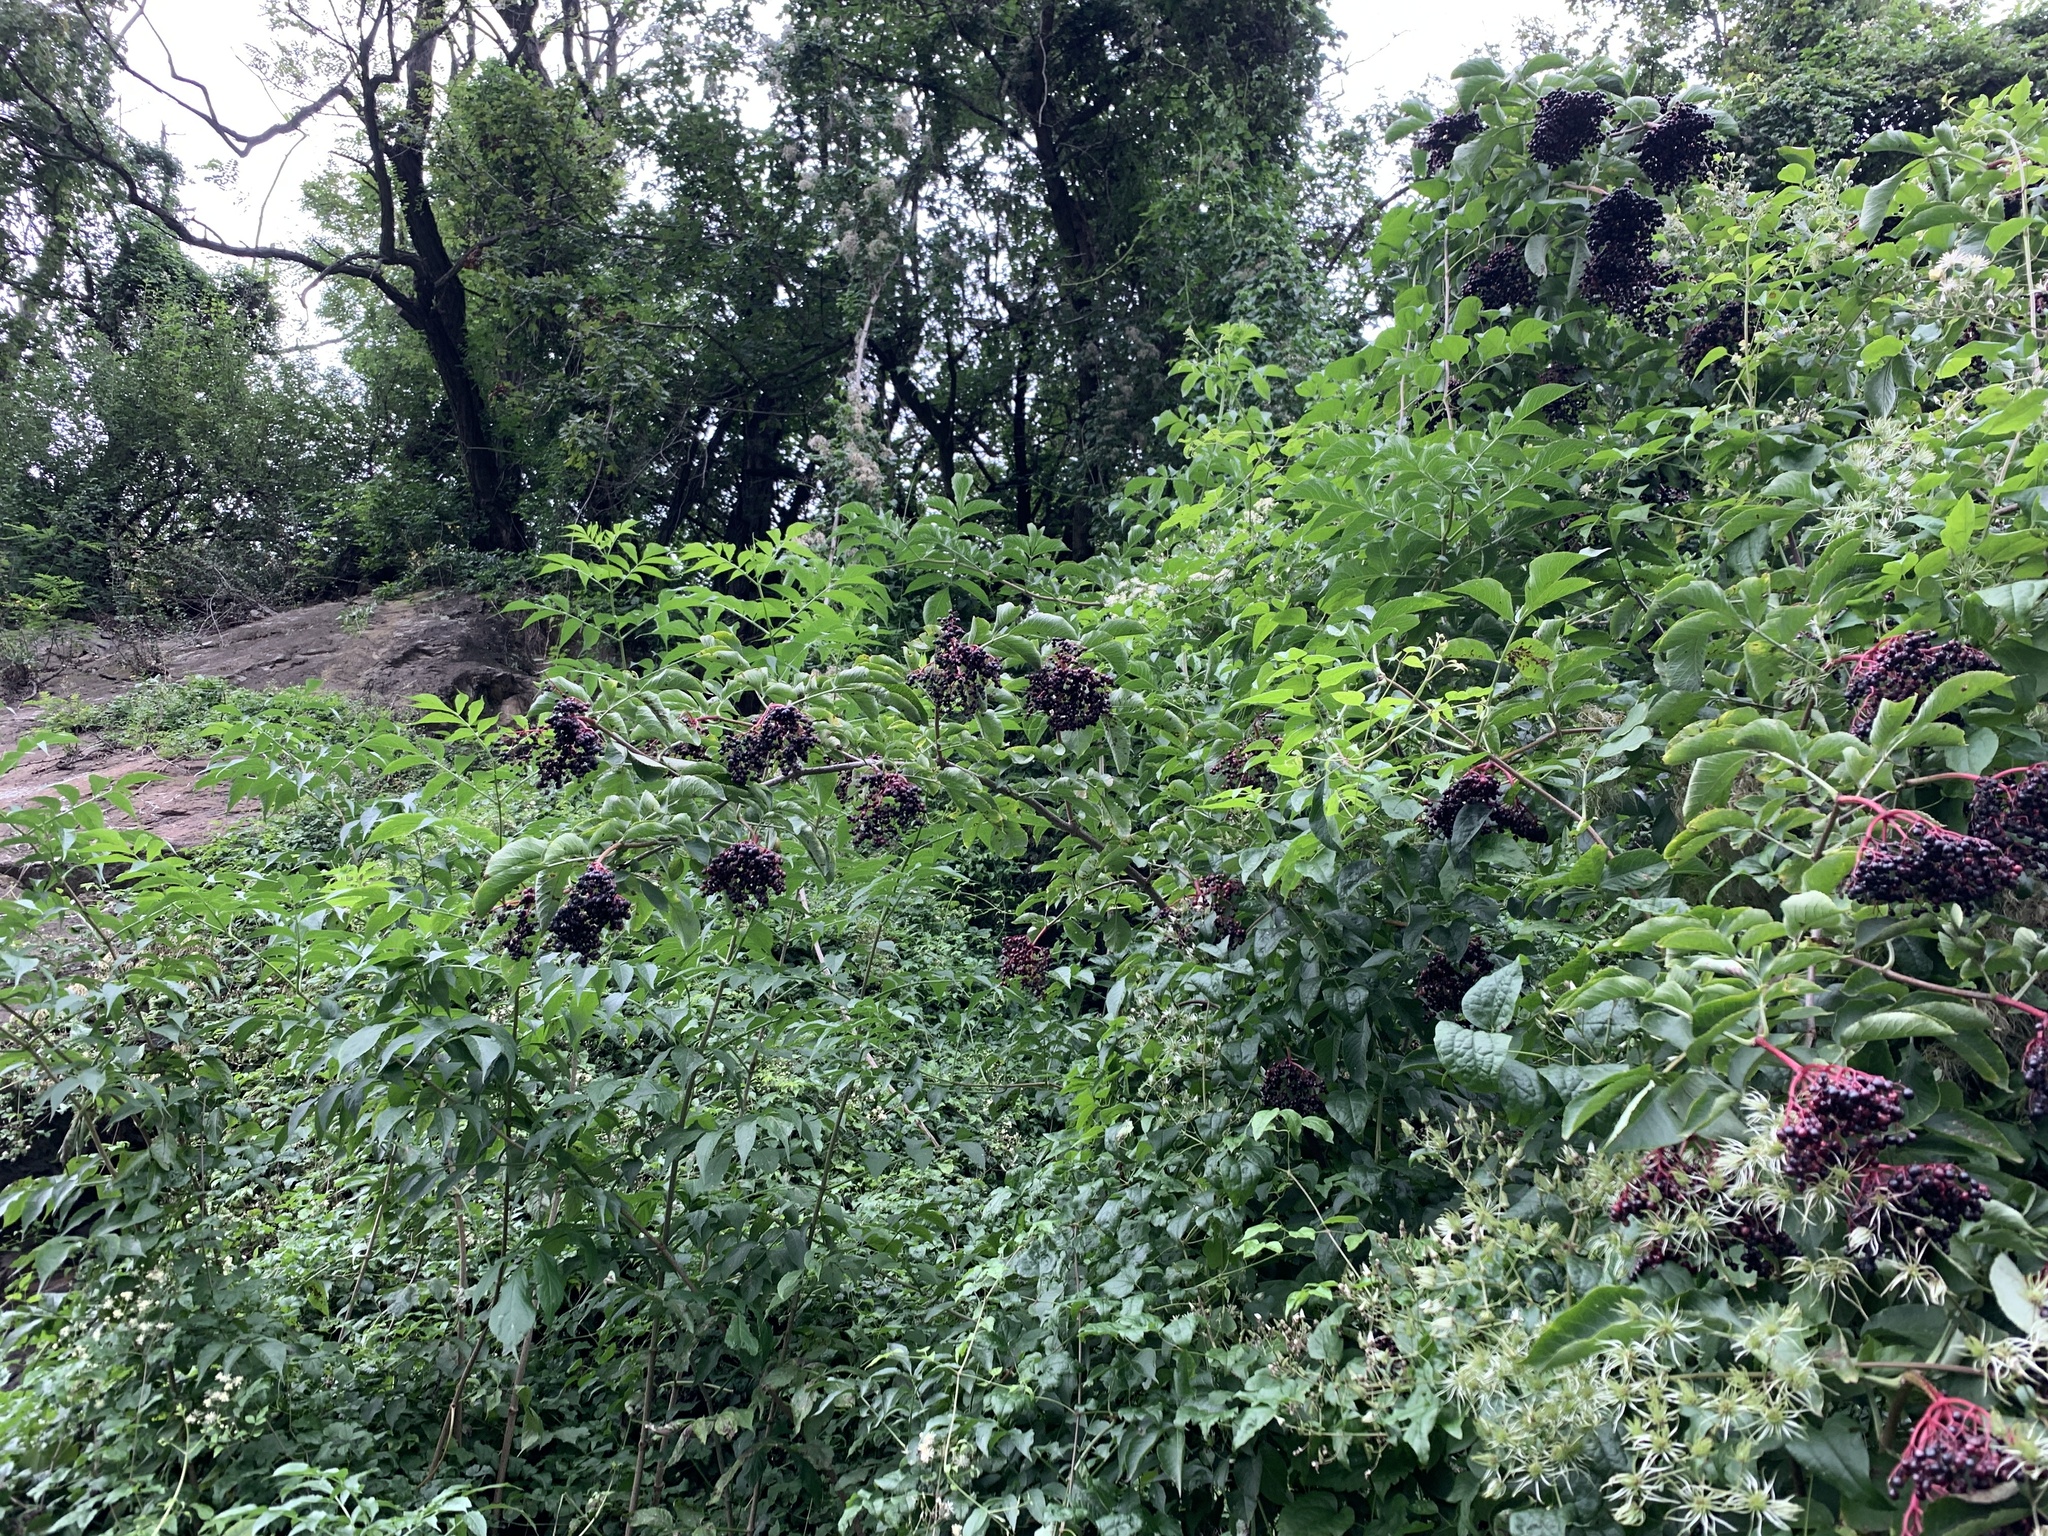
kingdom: Plantae
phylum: Tracheophyta
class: Magnoliopsida
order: Dipsacales
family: Viburnaceae
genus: Sambucus
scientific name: Sambucus nigra
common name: Elder
